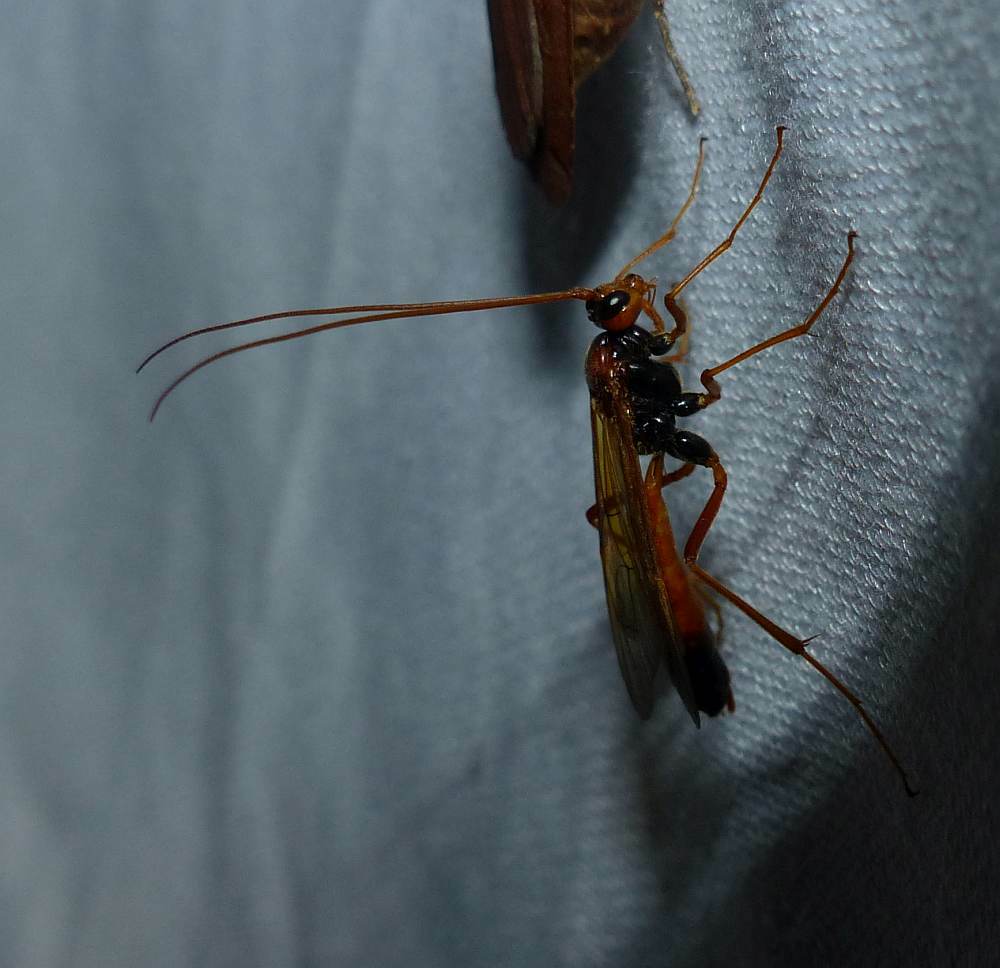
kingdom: Animalia
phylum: Arthropoda
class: Insecta
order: Hymenoptera
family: Ichneumonidae
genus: Opheltes
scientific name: Opheltes glaucopterus
